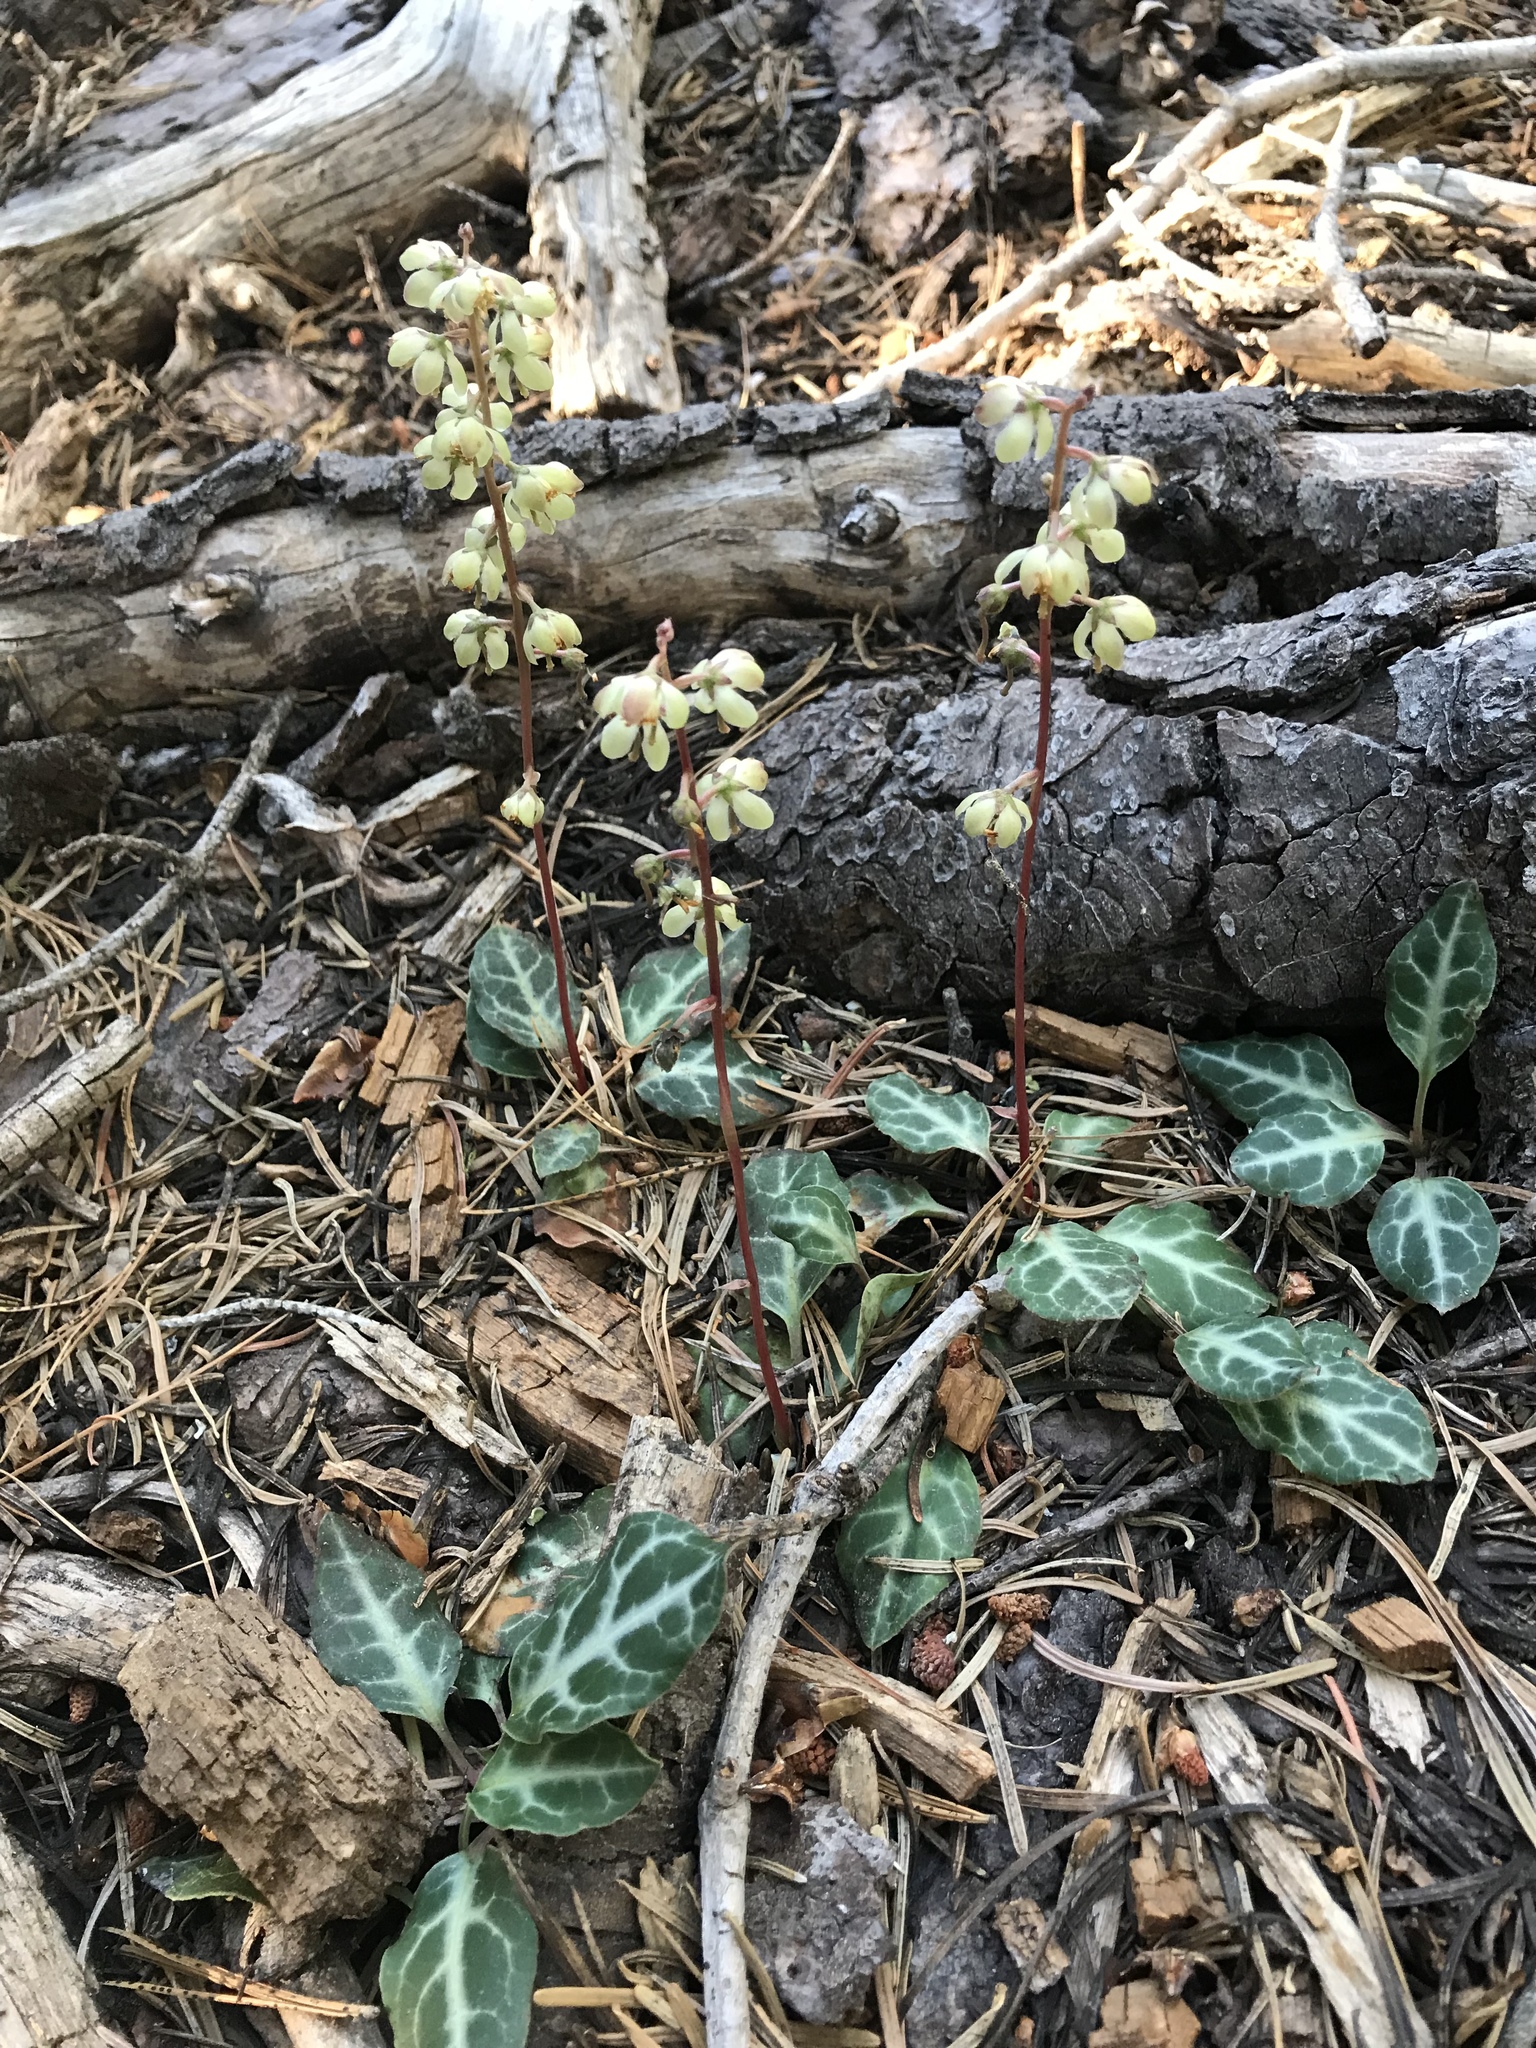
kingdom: Plantae
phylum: Tracheophyta
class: Magnoliopsida
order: Ericales
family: Ericaceae
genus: Pyrola
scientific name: Pyrola picta
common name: White-vein wintergreen
